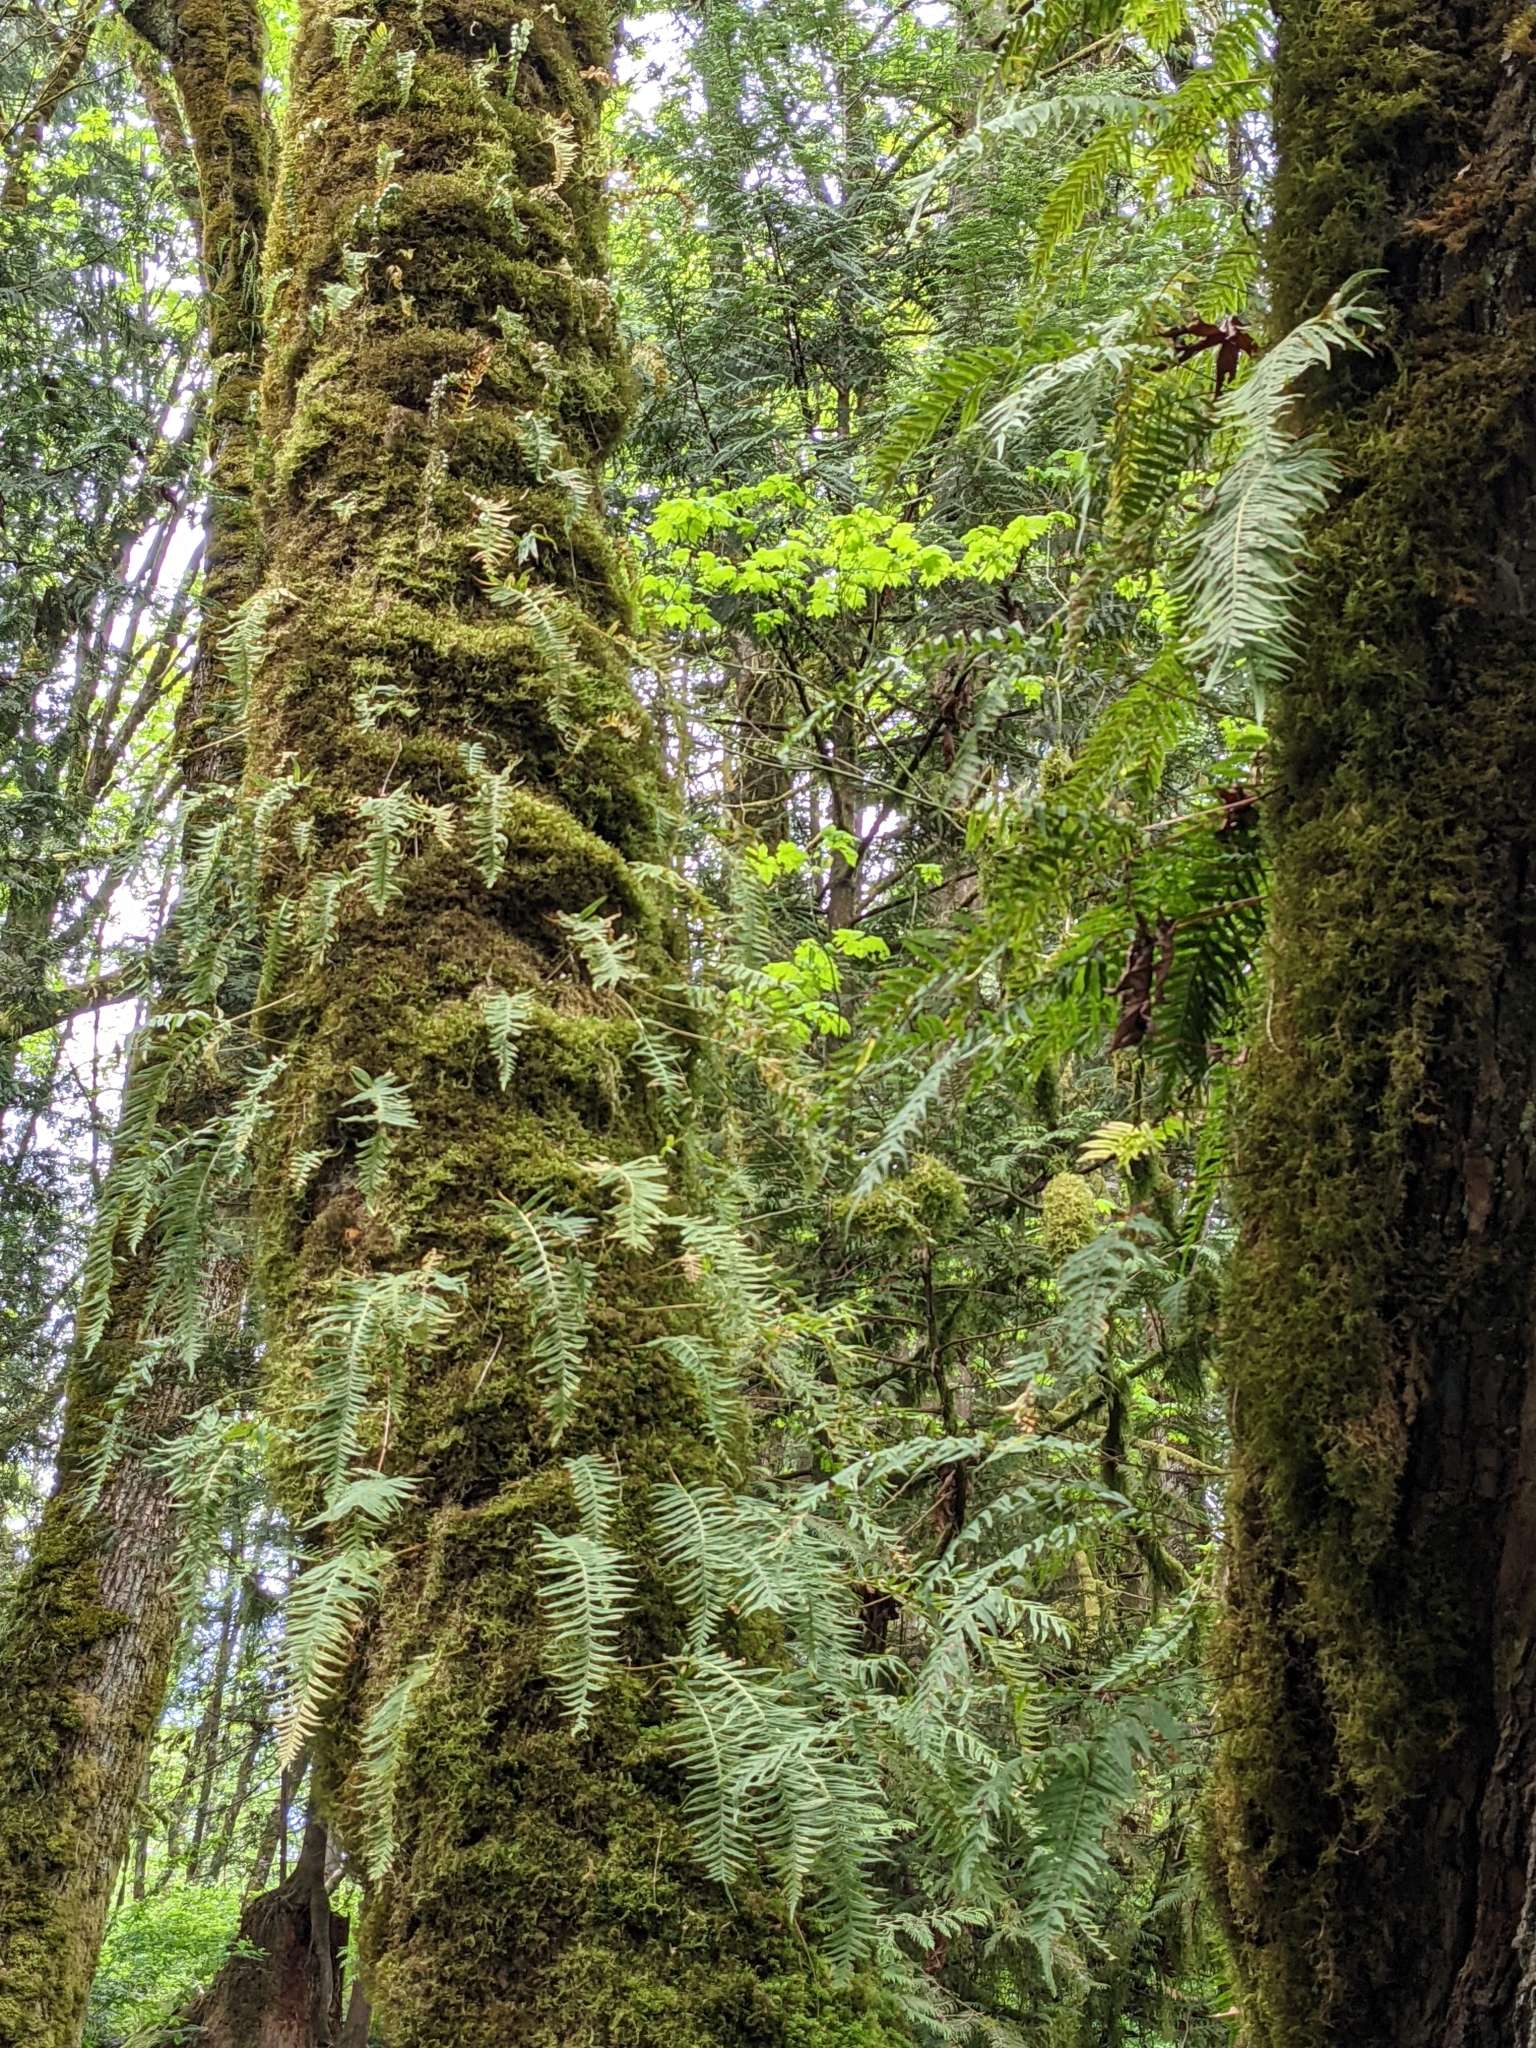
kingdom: Plantae
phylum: Tracheophyta
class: Polypodiopsida
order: Polypodiales
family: Polypodiaceae
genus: Polypodium
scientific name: Polypodium glycyrrhiza
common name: Licorice fern
